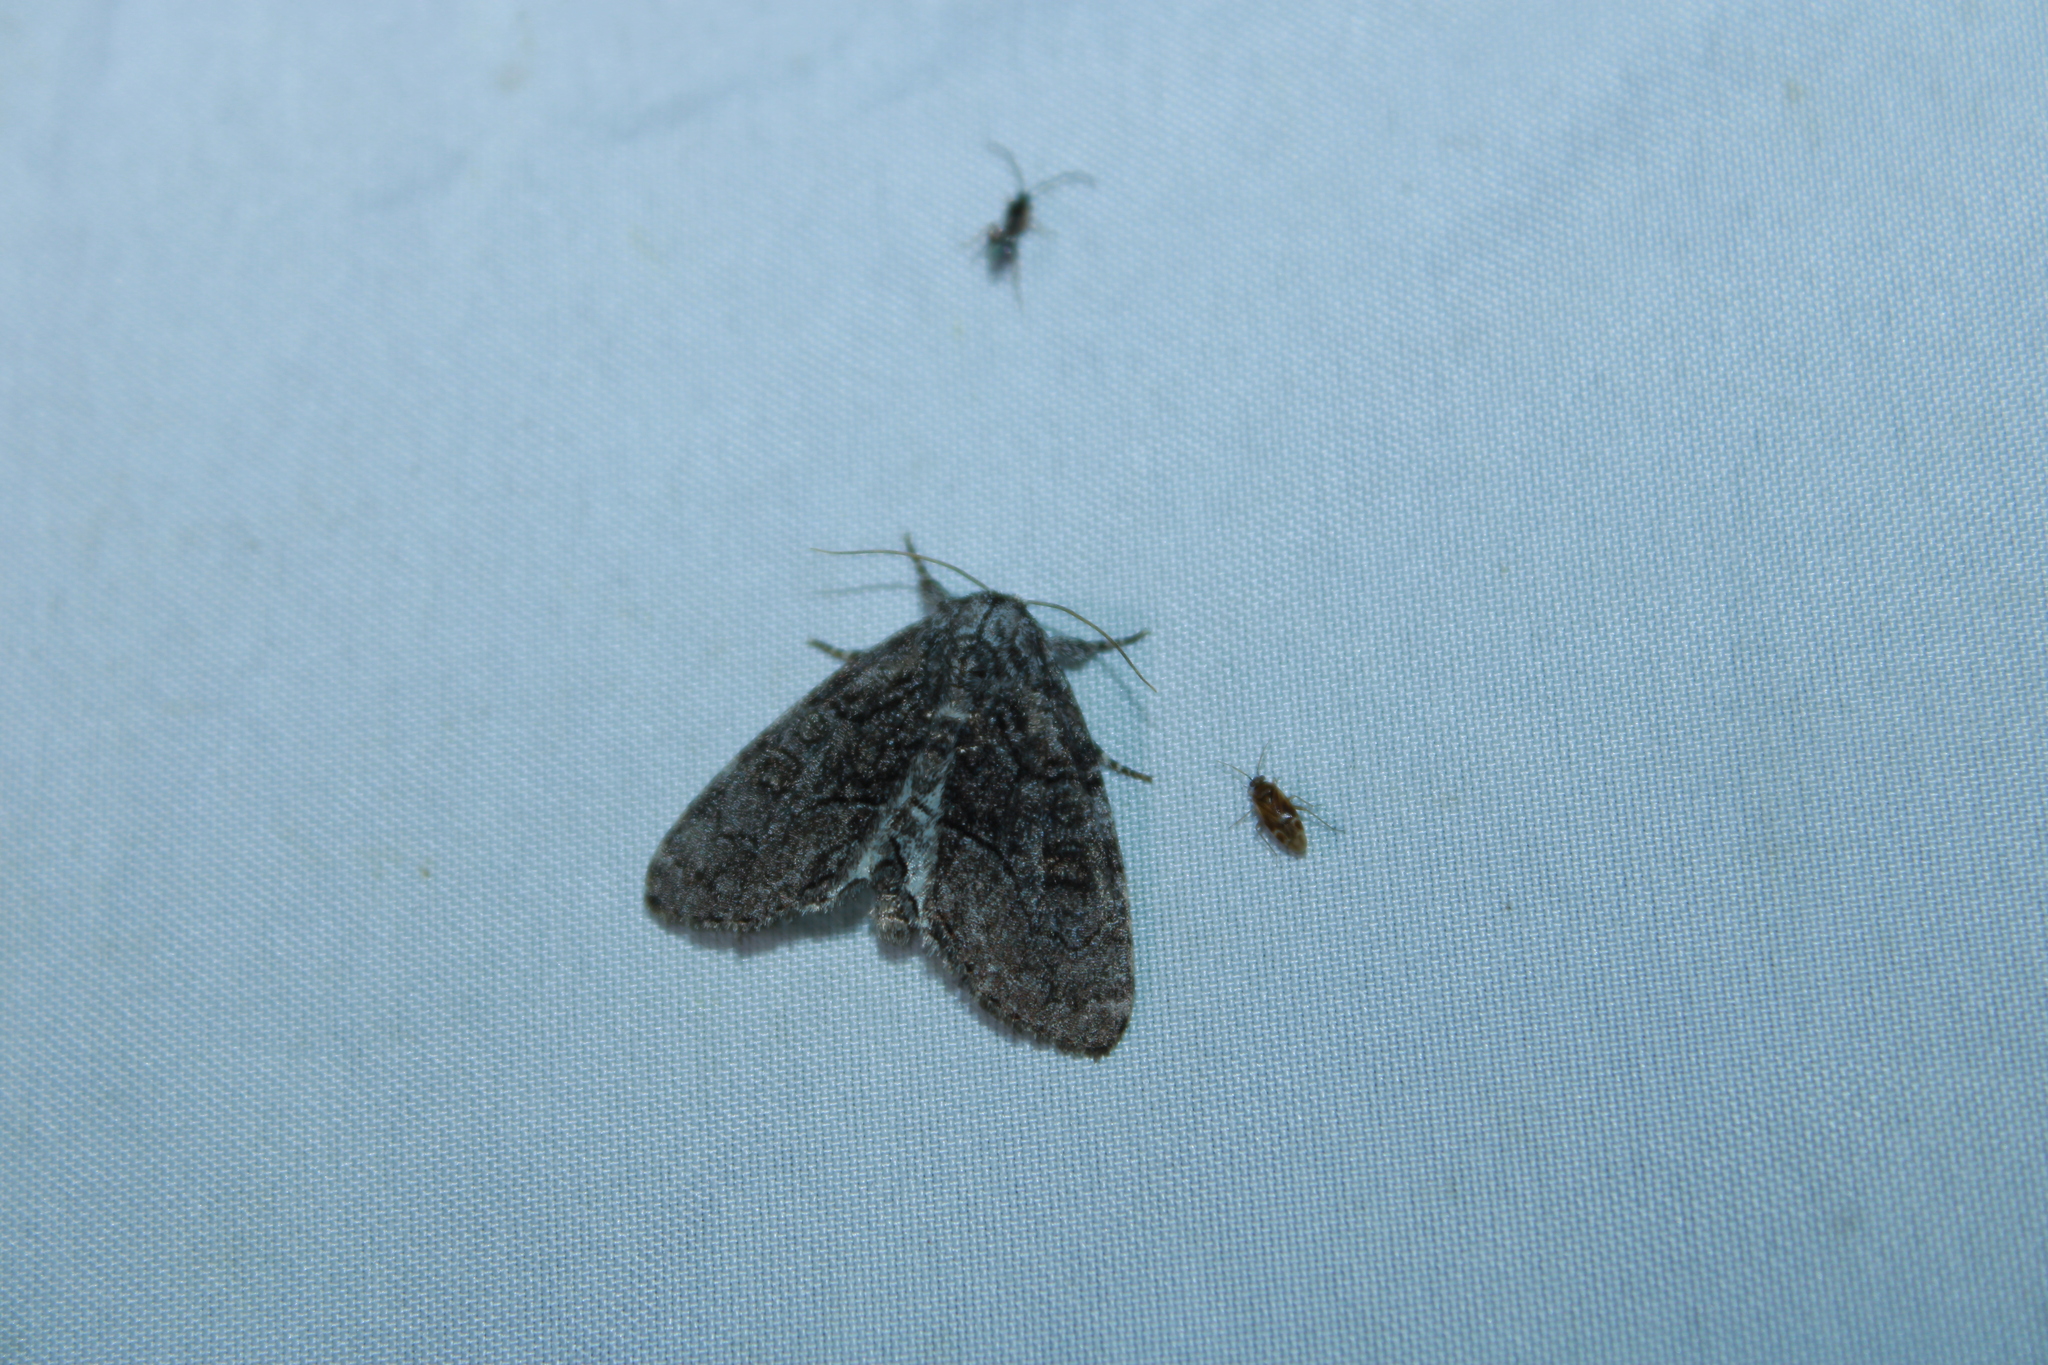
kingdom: Animalia
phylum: Arthropoda
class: Insecta
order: Lepidoptera
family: Noctuidae
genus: Raphia
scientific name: Raphia frater
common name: Brother
